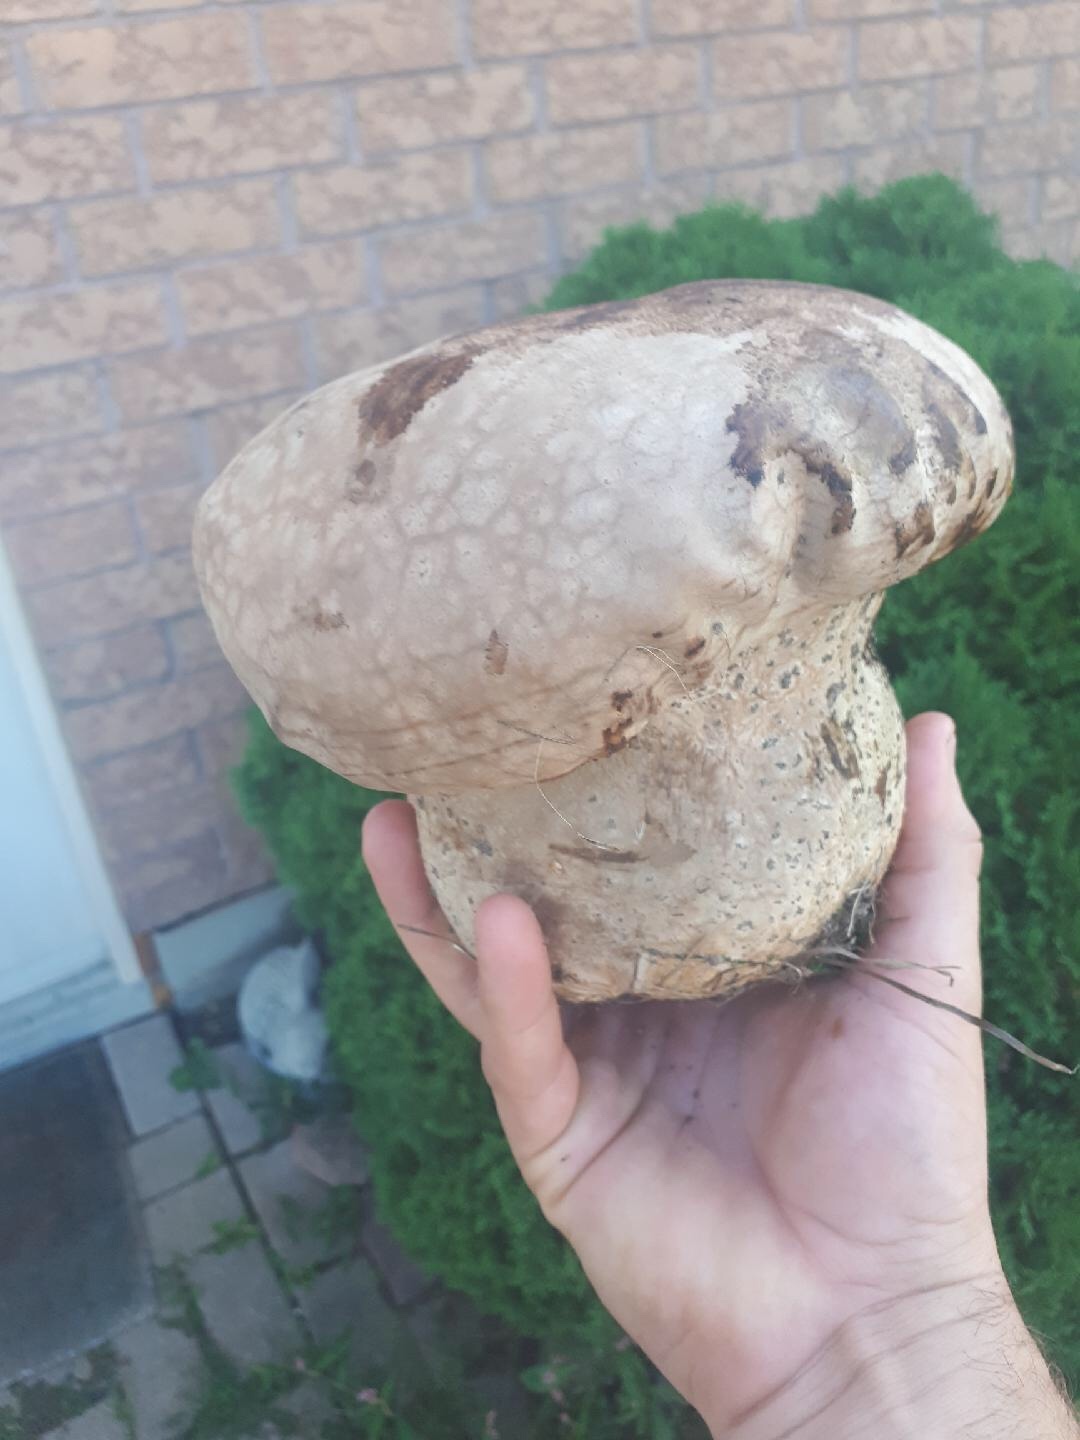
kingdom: Fungi
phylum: Basidiomycota
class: Agaricomycetes
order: Agaricales
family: Lycoperdaceae
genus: Calvatia
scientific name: Calvatia cyathiformis
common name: Purple-spored puffball
